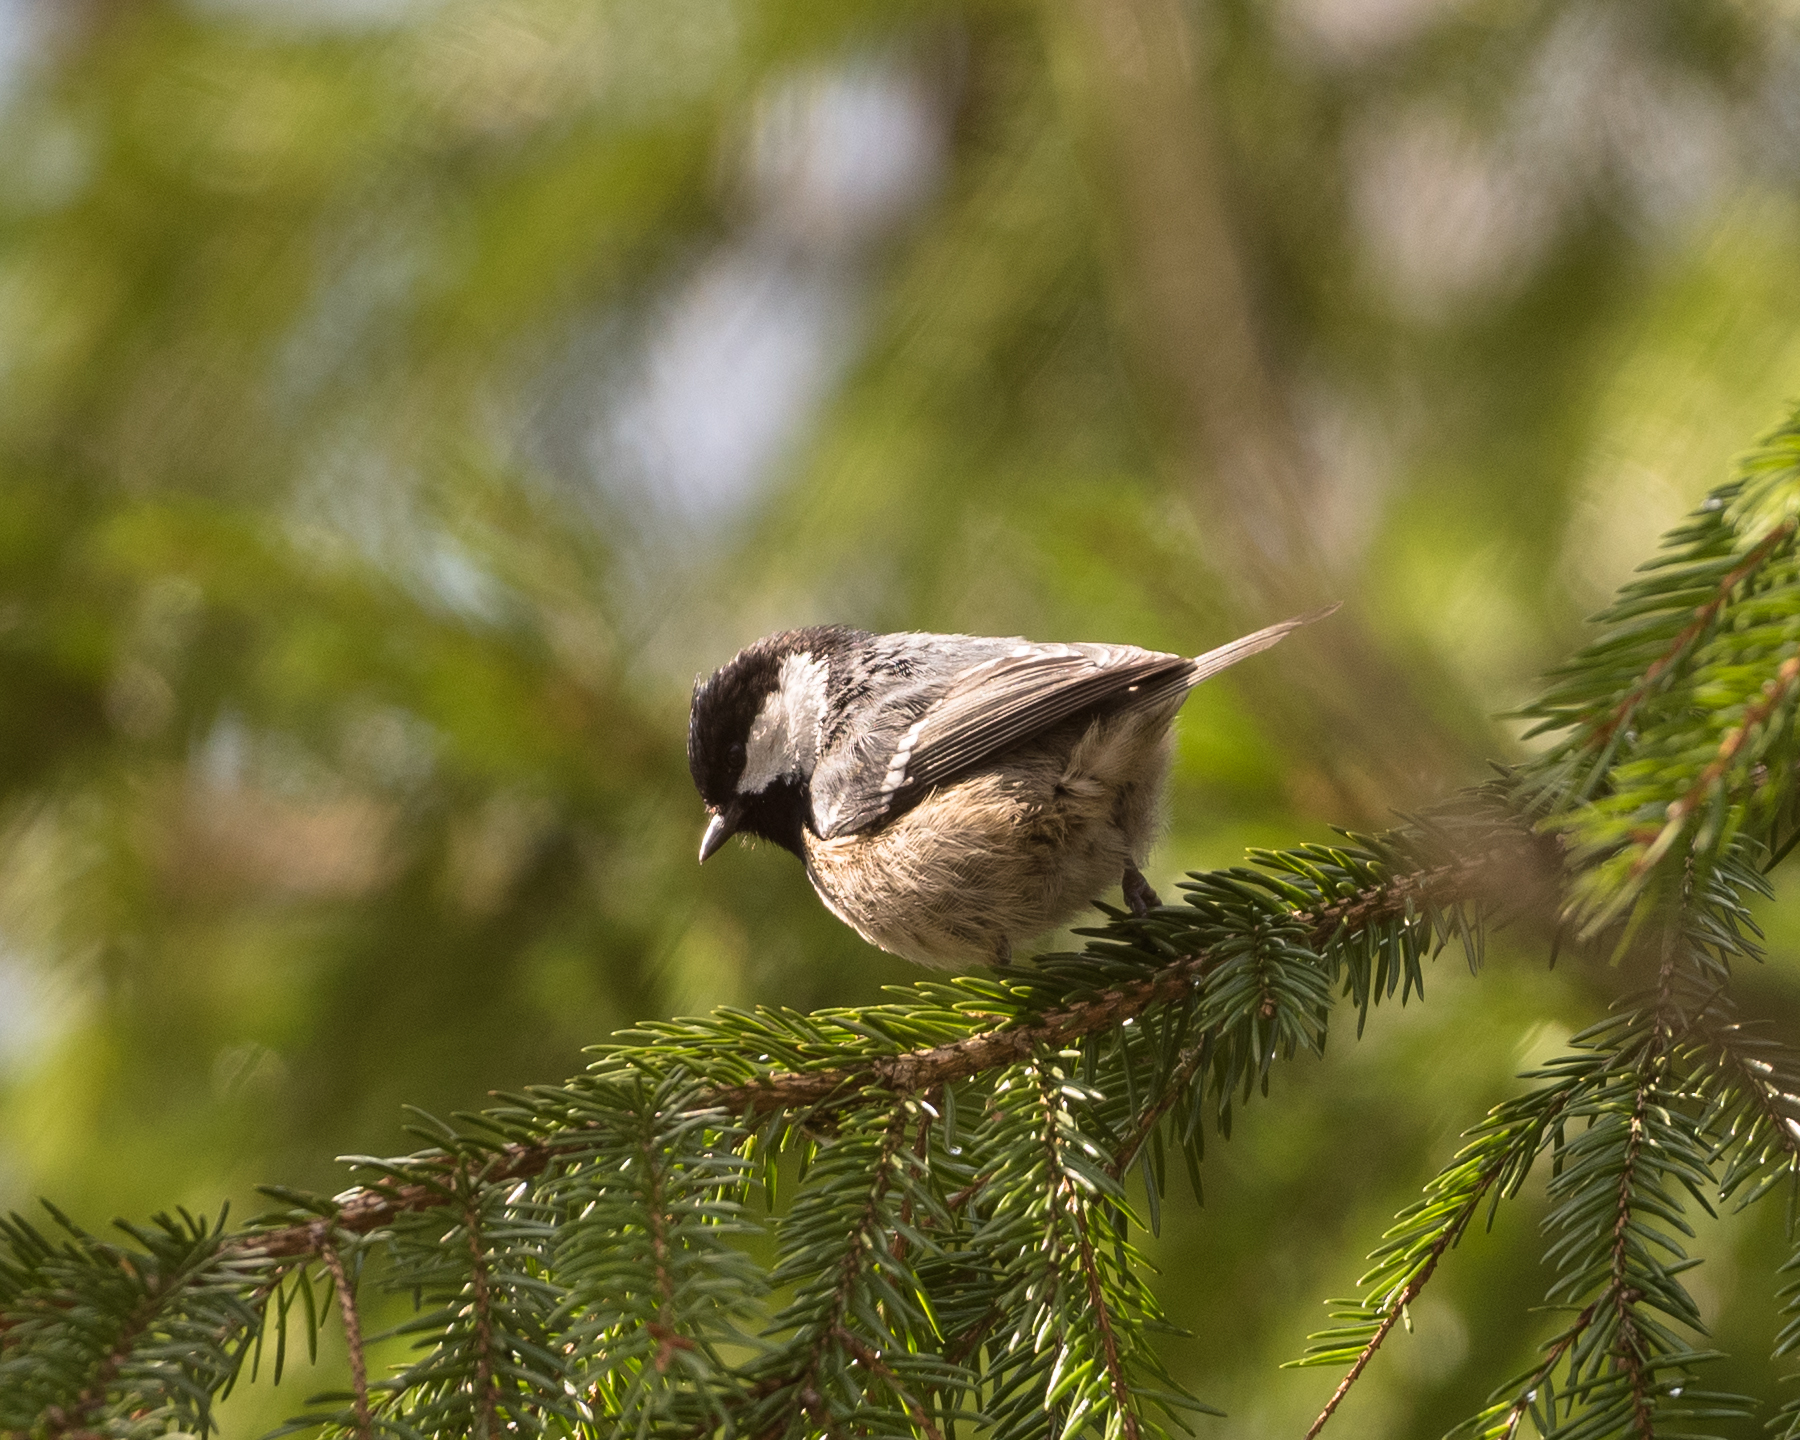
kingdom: Animalia
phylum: Chordata
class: Aves
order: Passeriformes
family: Paridae
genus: Periparus
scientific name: Periparus ater
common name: Coal tit
